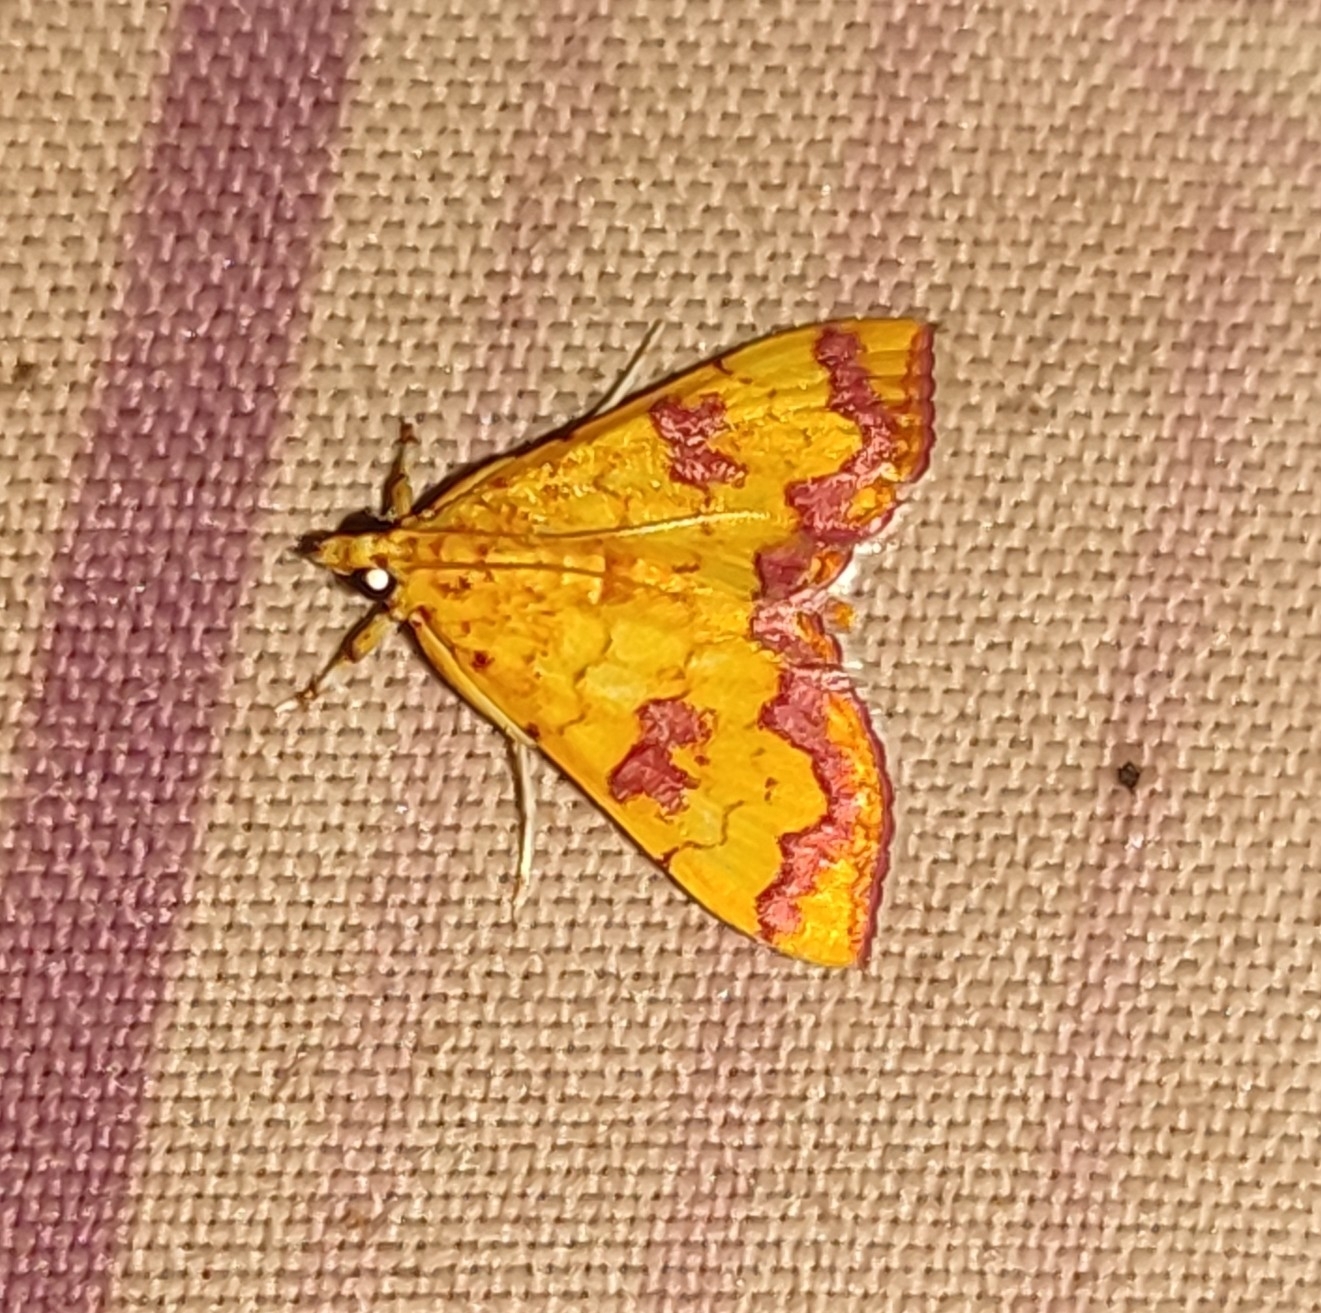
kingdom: Animalia
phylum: Arthropoda
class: Insecta
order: Lepidoptera
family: Crambidae
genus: Isocentris
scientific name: Isocentris filalis
